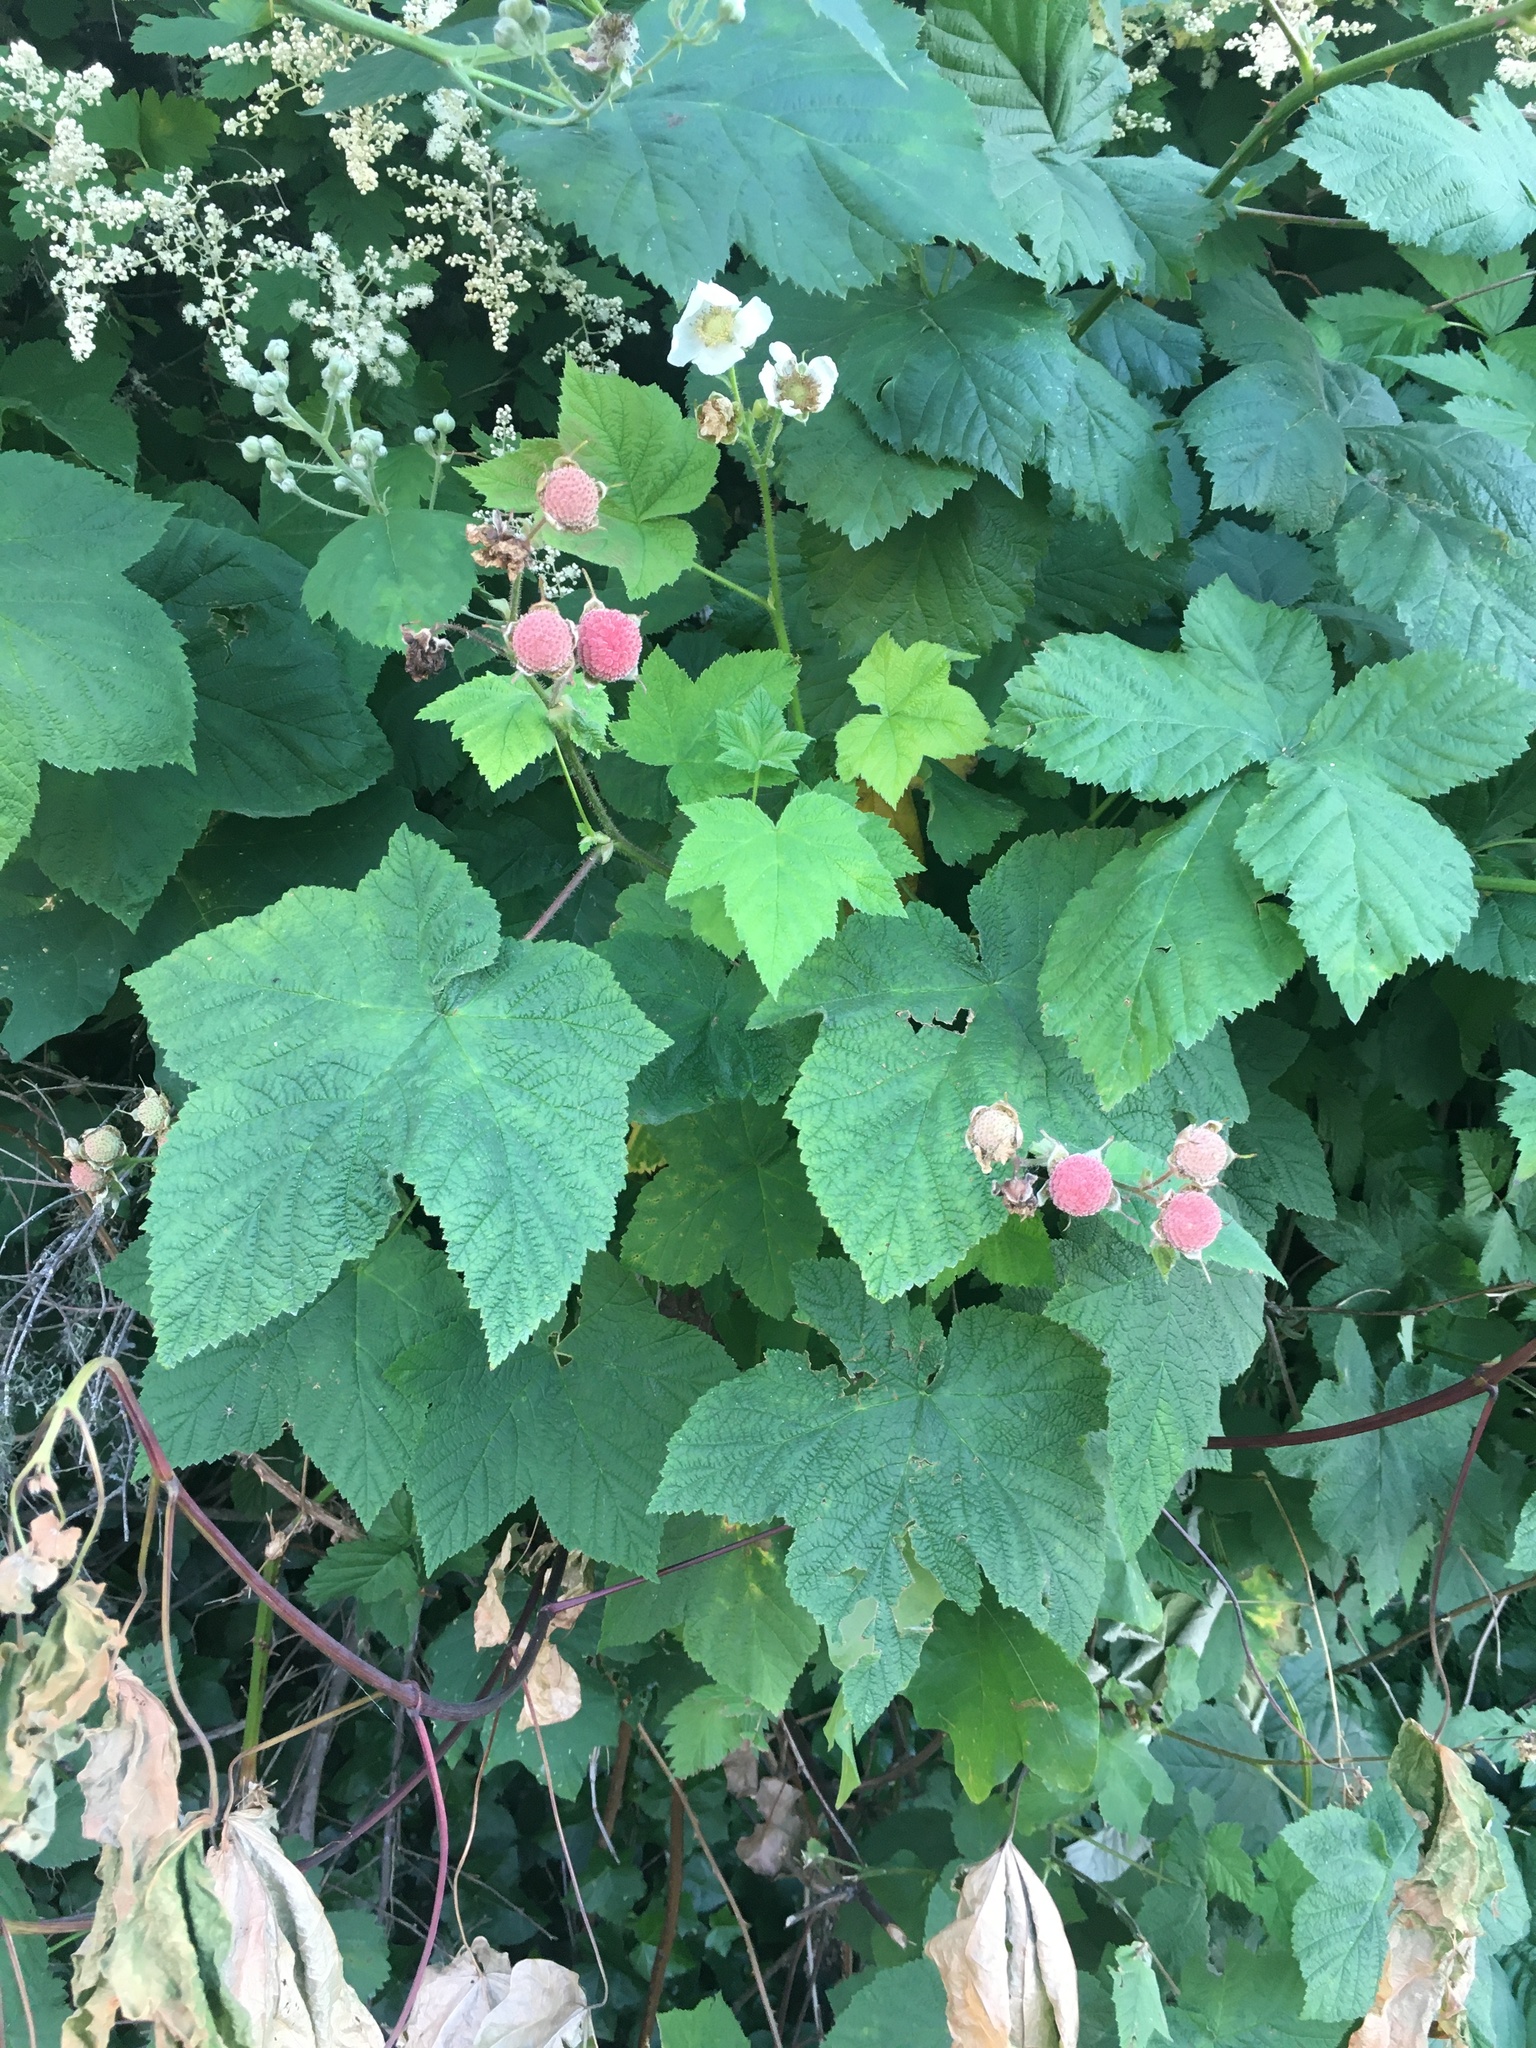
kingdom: Plantae
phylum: Tracheophyta
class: Magnoliopsida
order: Rosales
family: Rosaceae
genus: Rubus
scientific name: Rubus parviflorus
